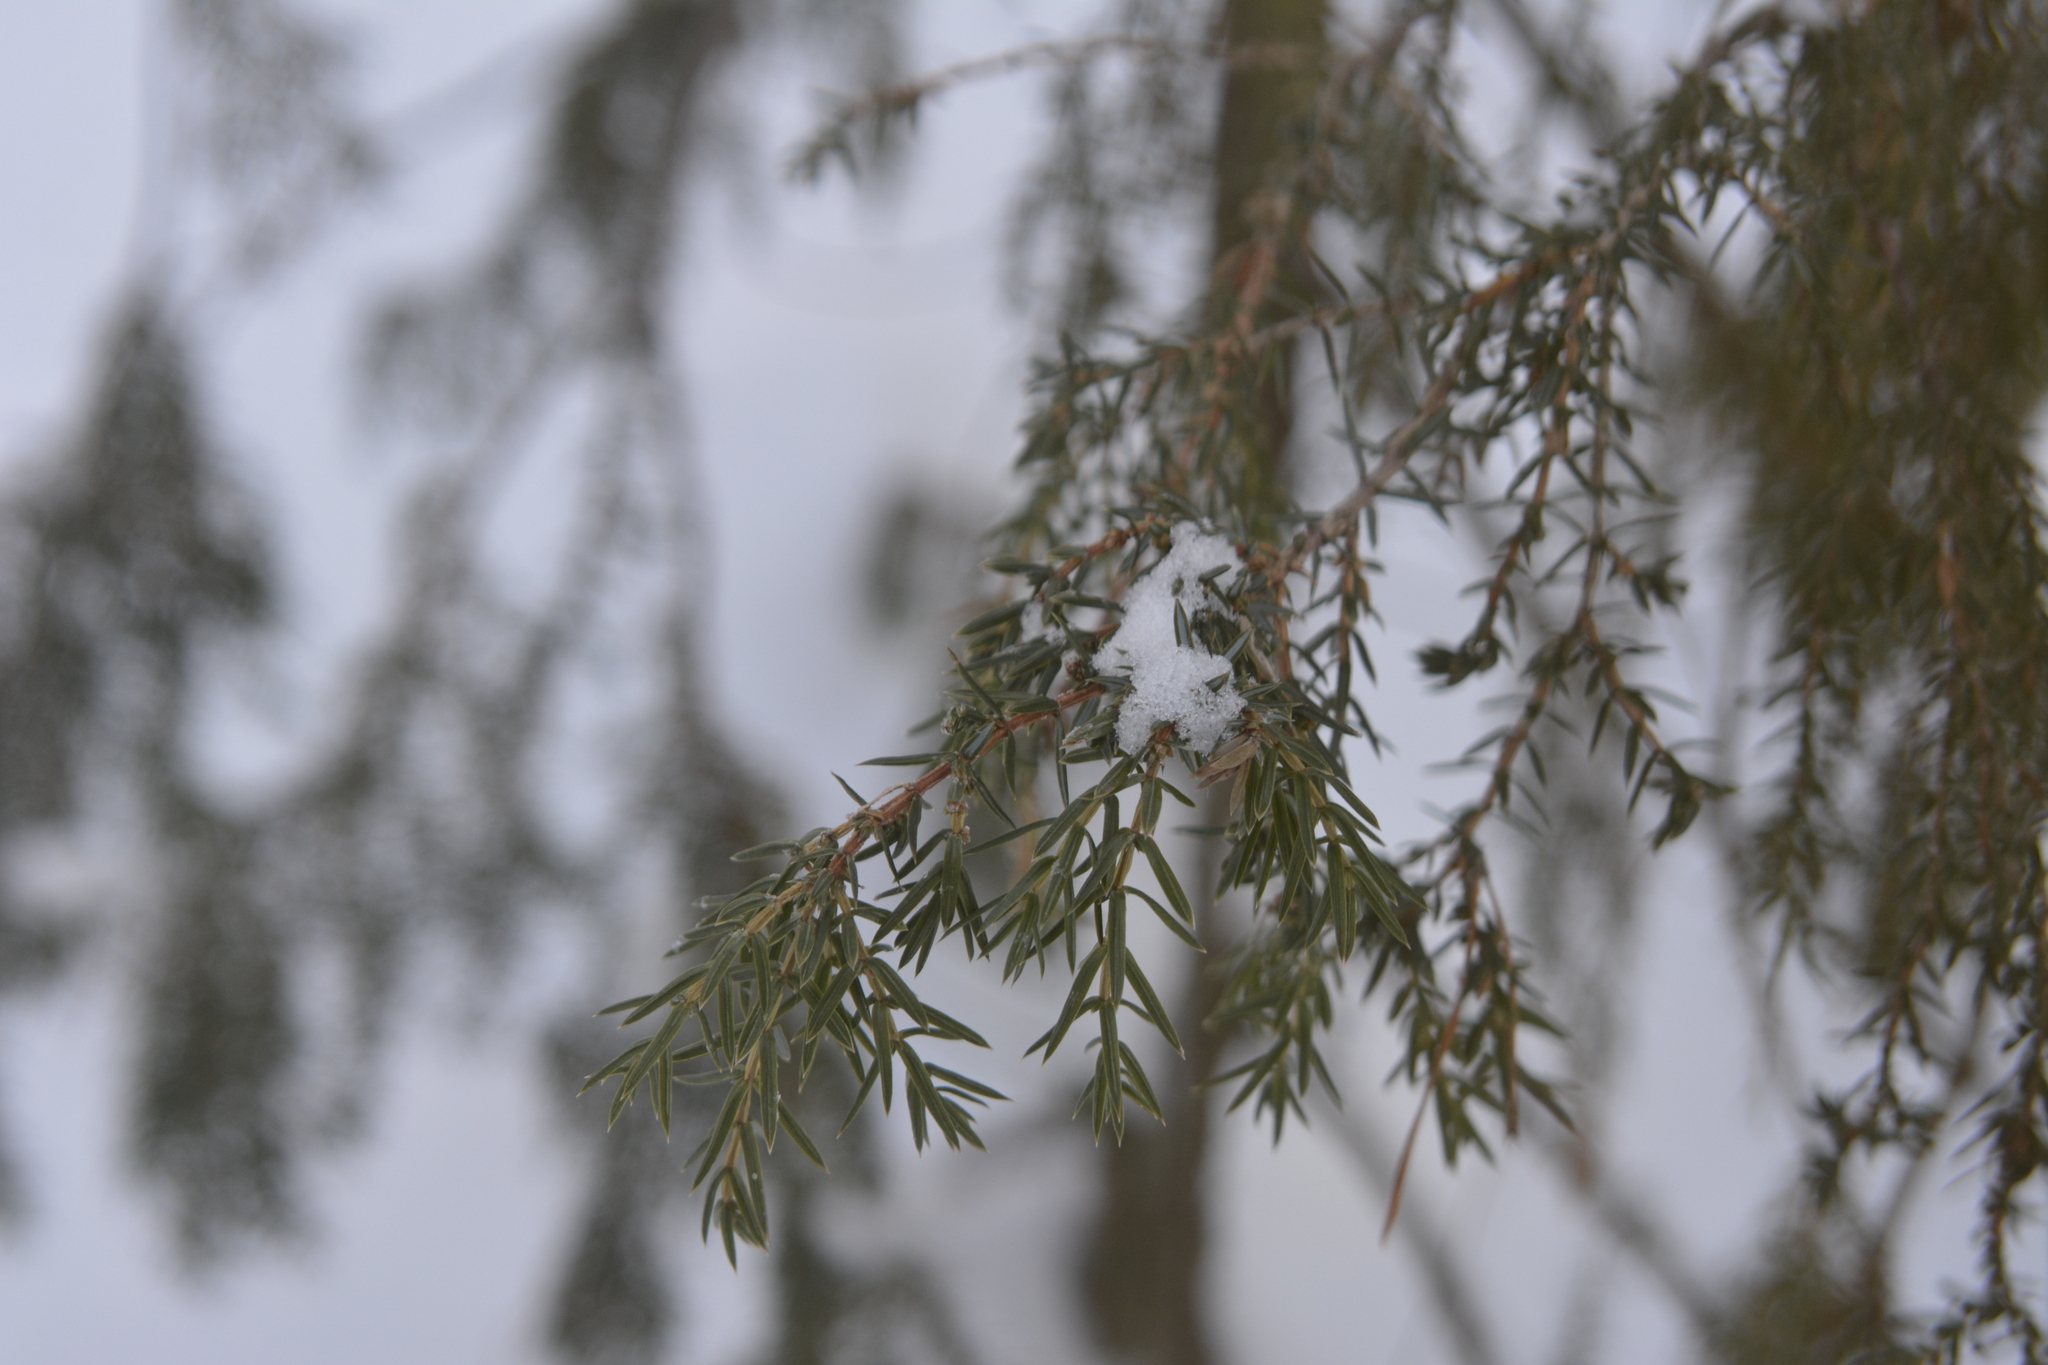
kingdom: Plantae
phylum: Tracheophyta
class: Pinopsida
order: Pinales
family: Cupressaceae
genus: Juniperus
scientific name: Juniperus communis
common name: Common juniper
